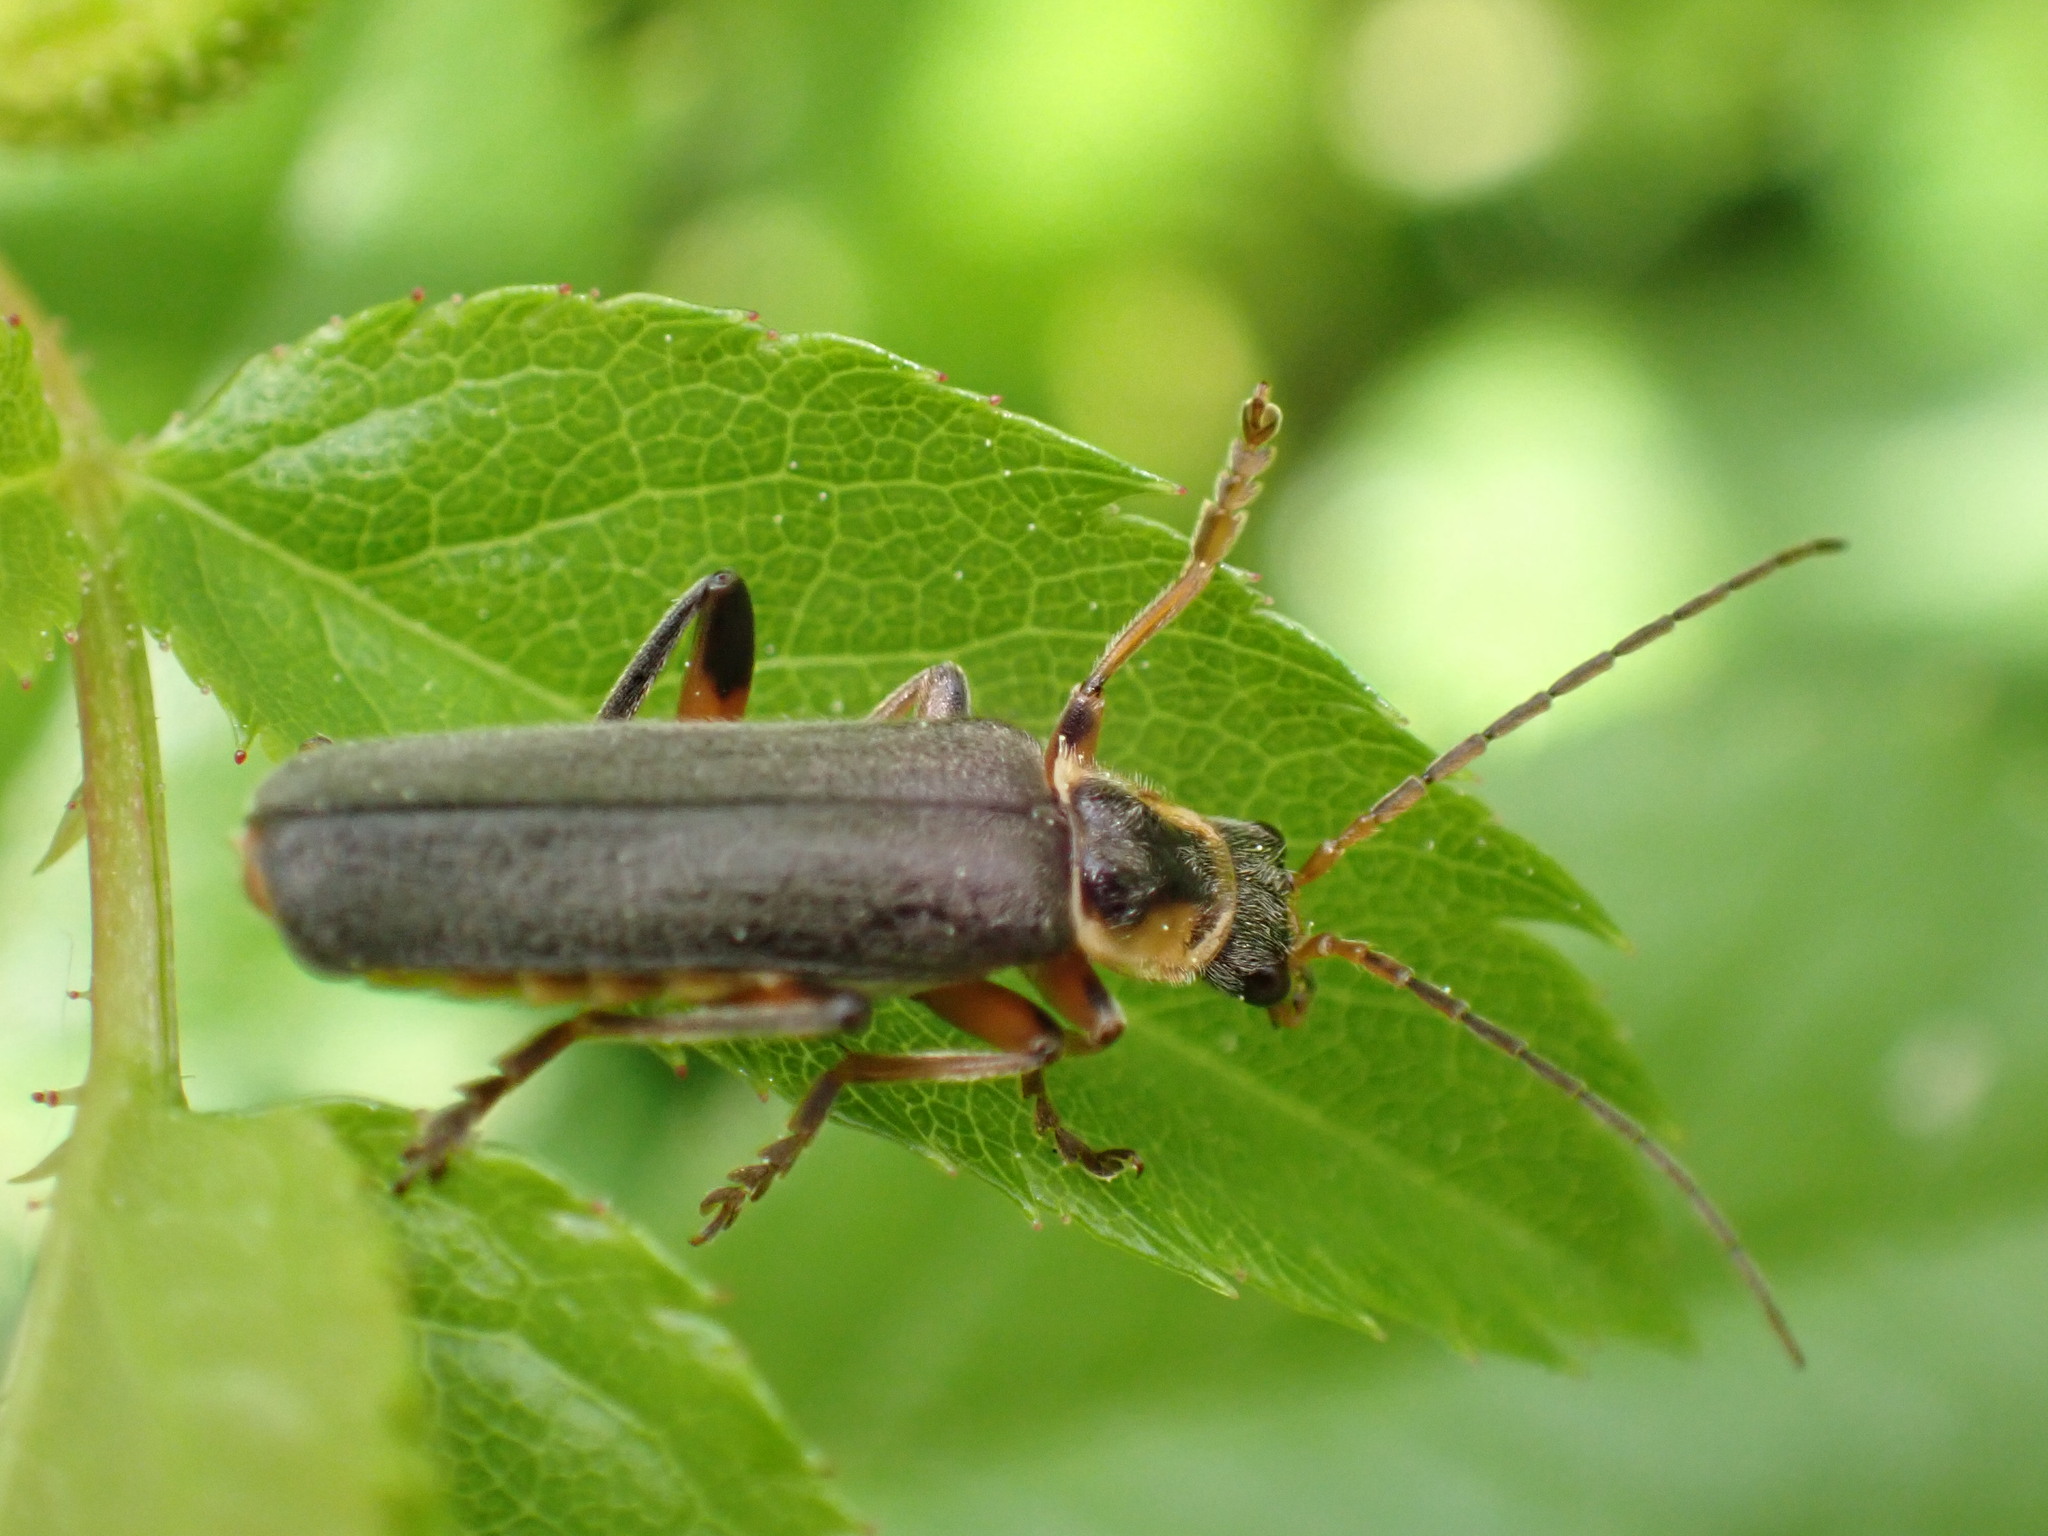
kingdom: Animalia
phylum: Arthropoda
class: Insecta
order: Coleoptera
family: Cantharidae
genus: Cantharis
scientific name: Cantharis nigricans
